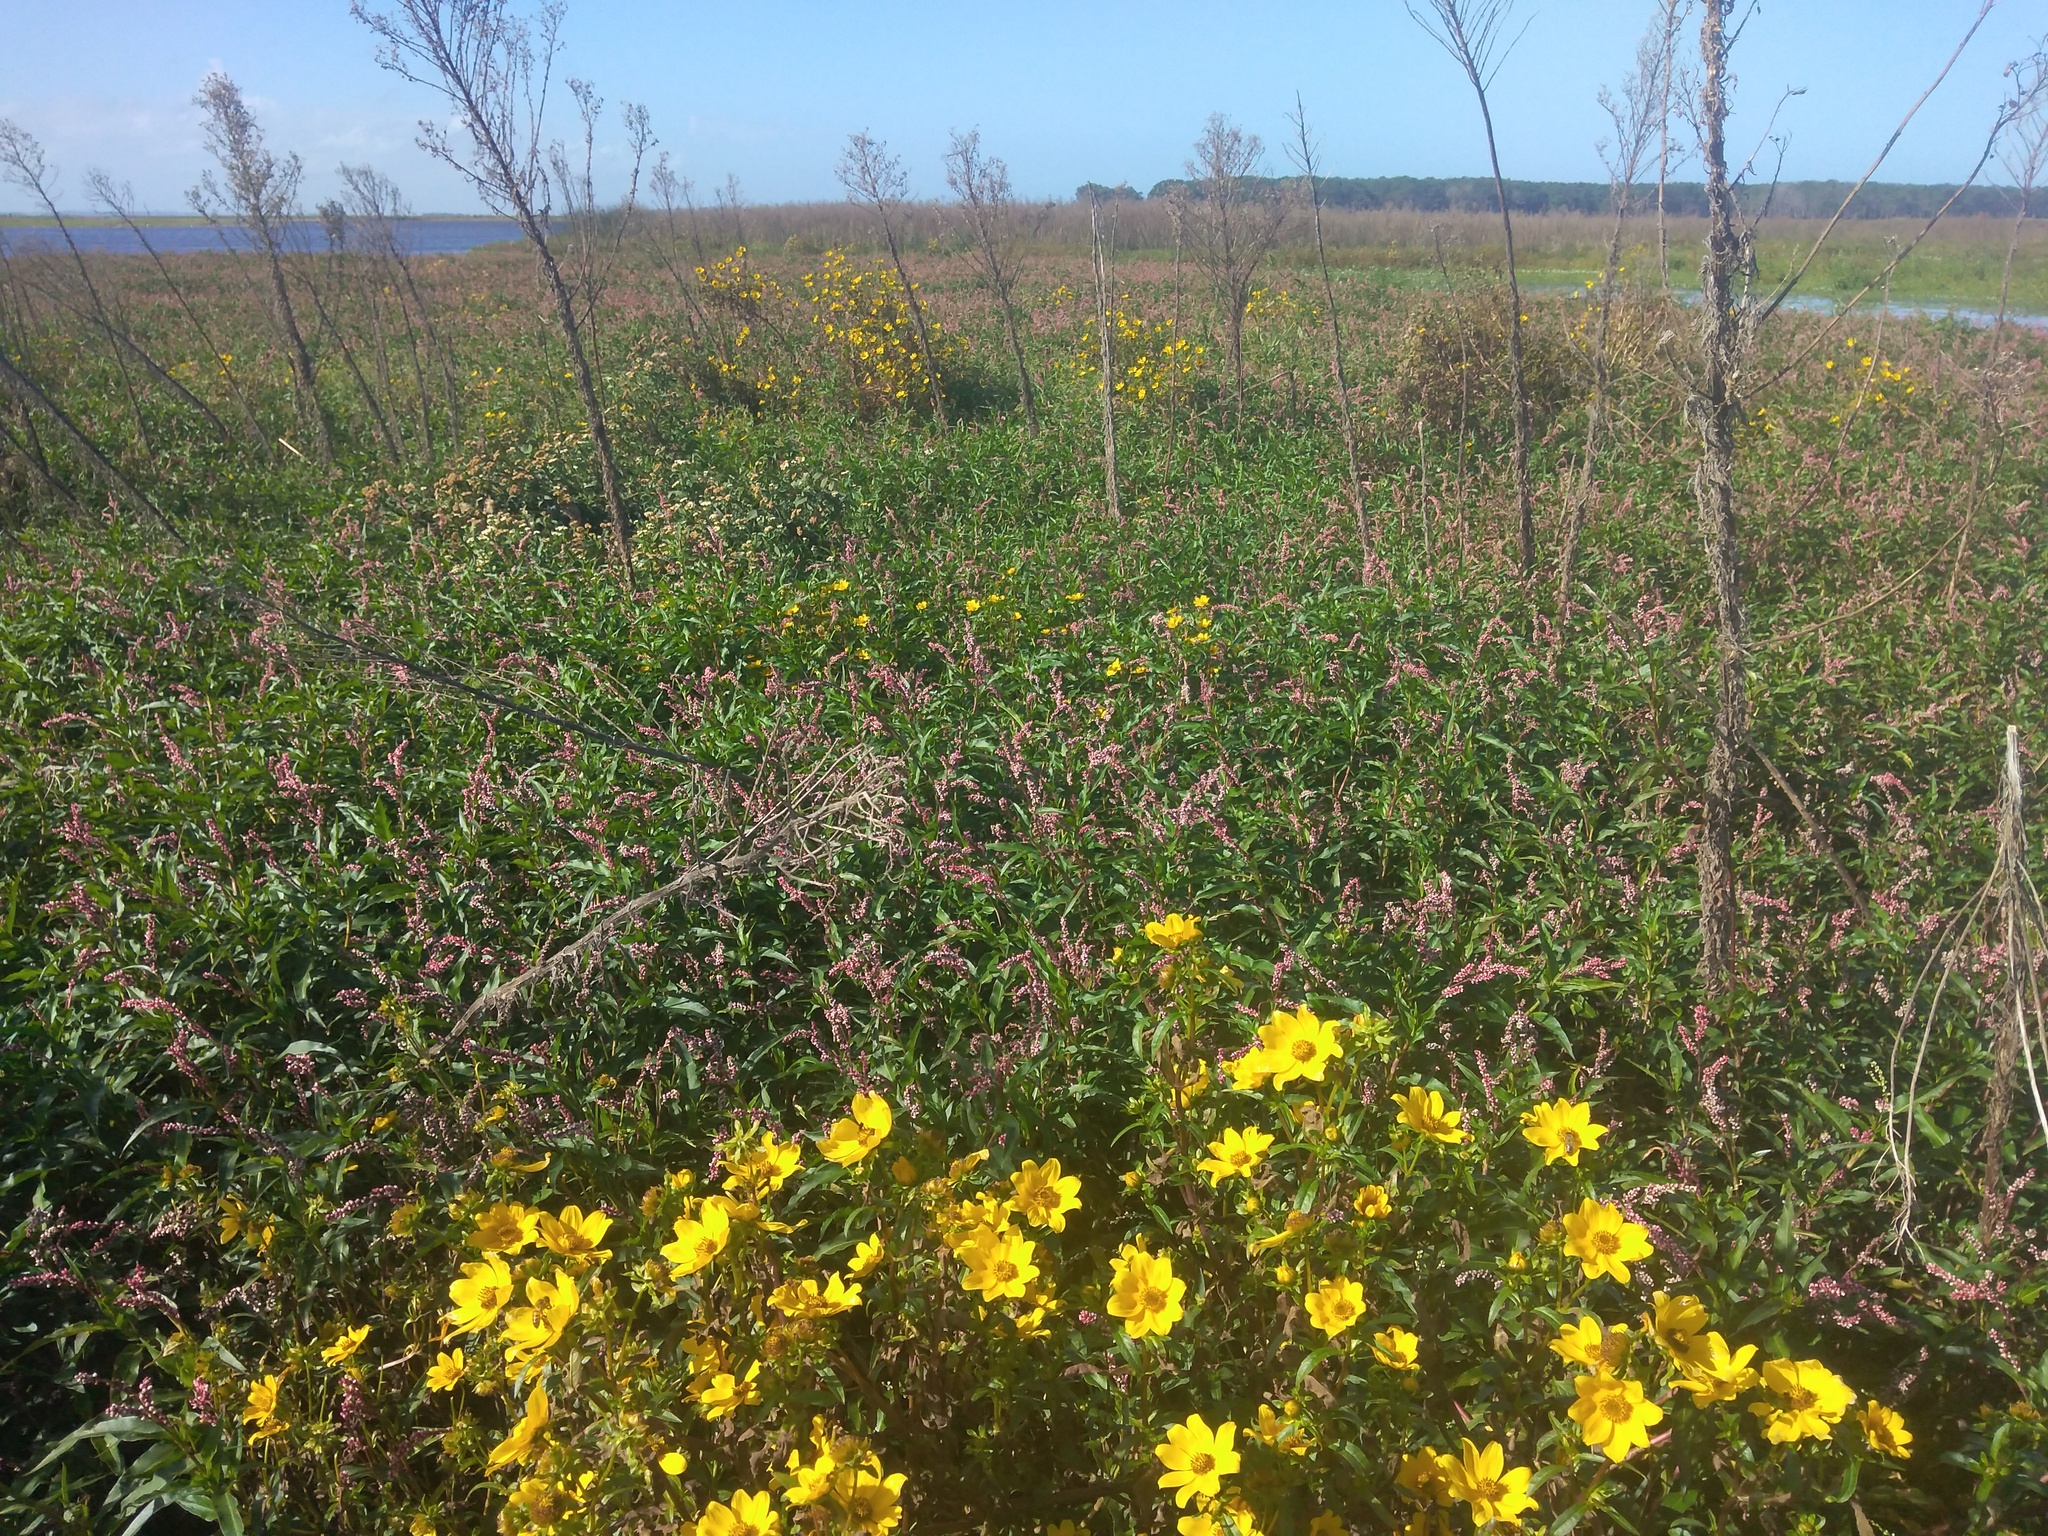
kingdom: Plantae
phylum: Tracheophyta
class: Magnoliopsida
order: Asterales
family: Asteraceae
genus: Bidens
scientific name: Bidens laevis
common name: Larger bur-marigold
